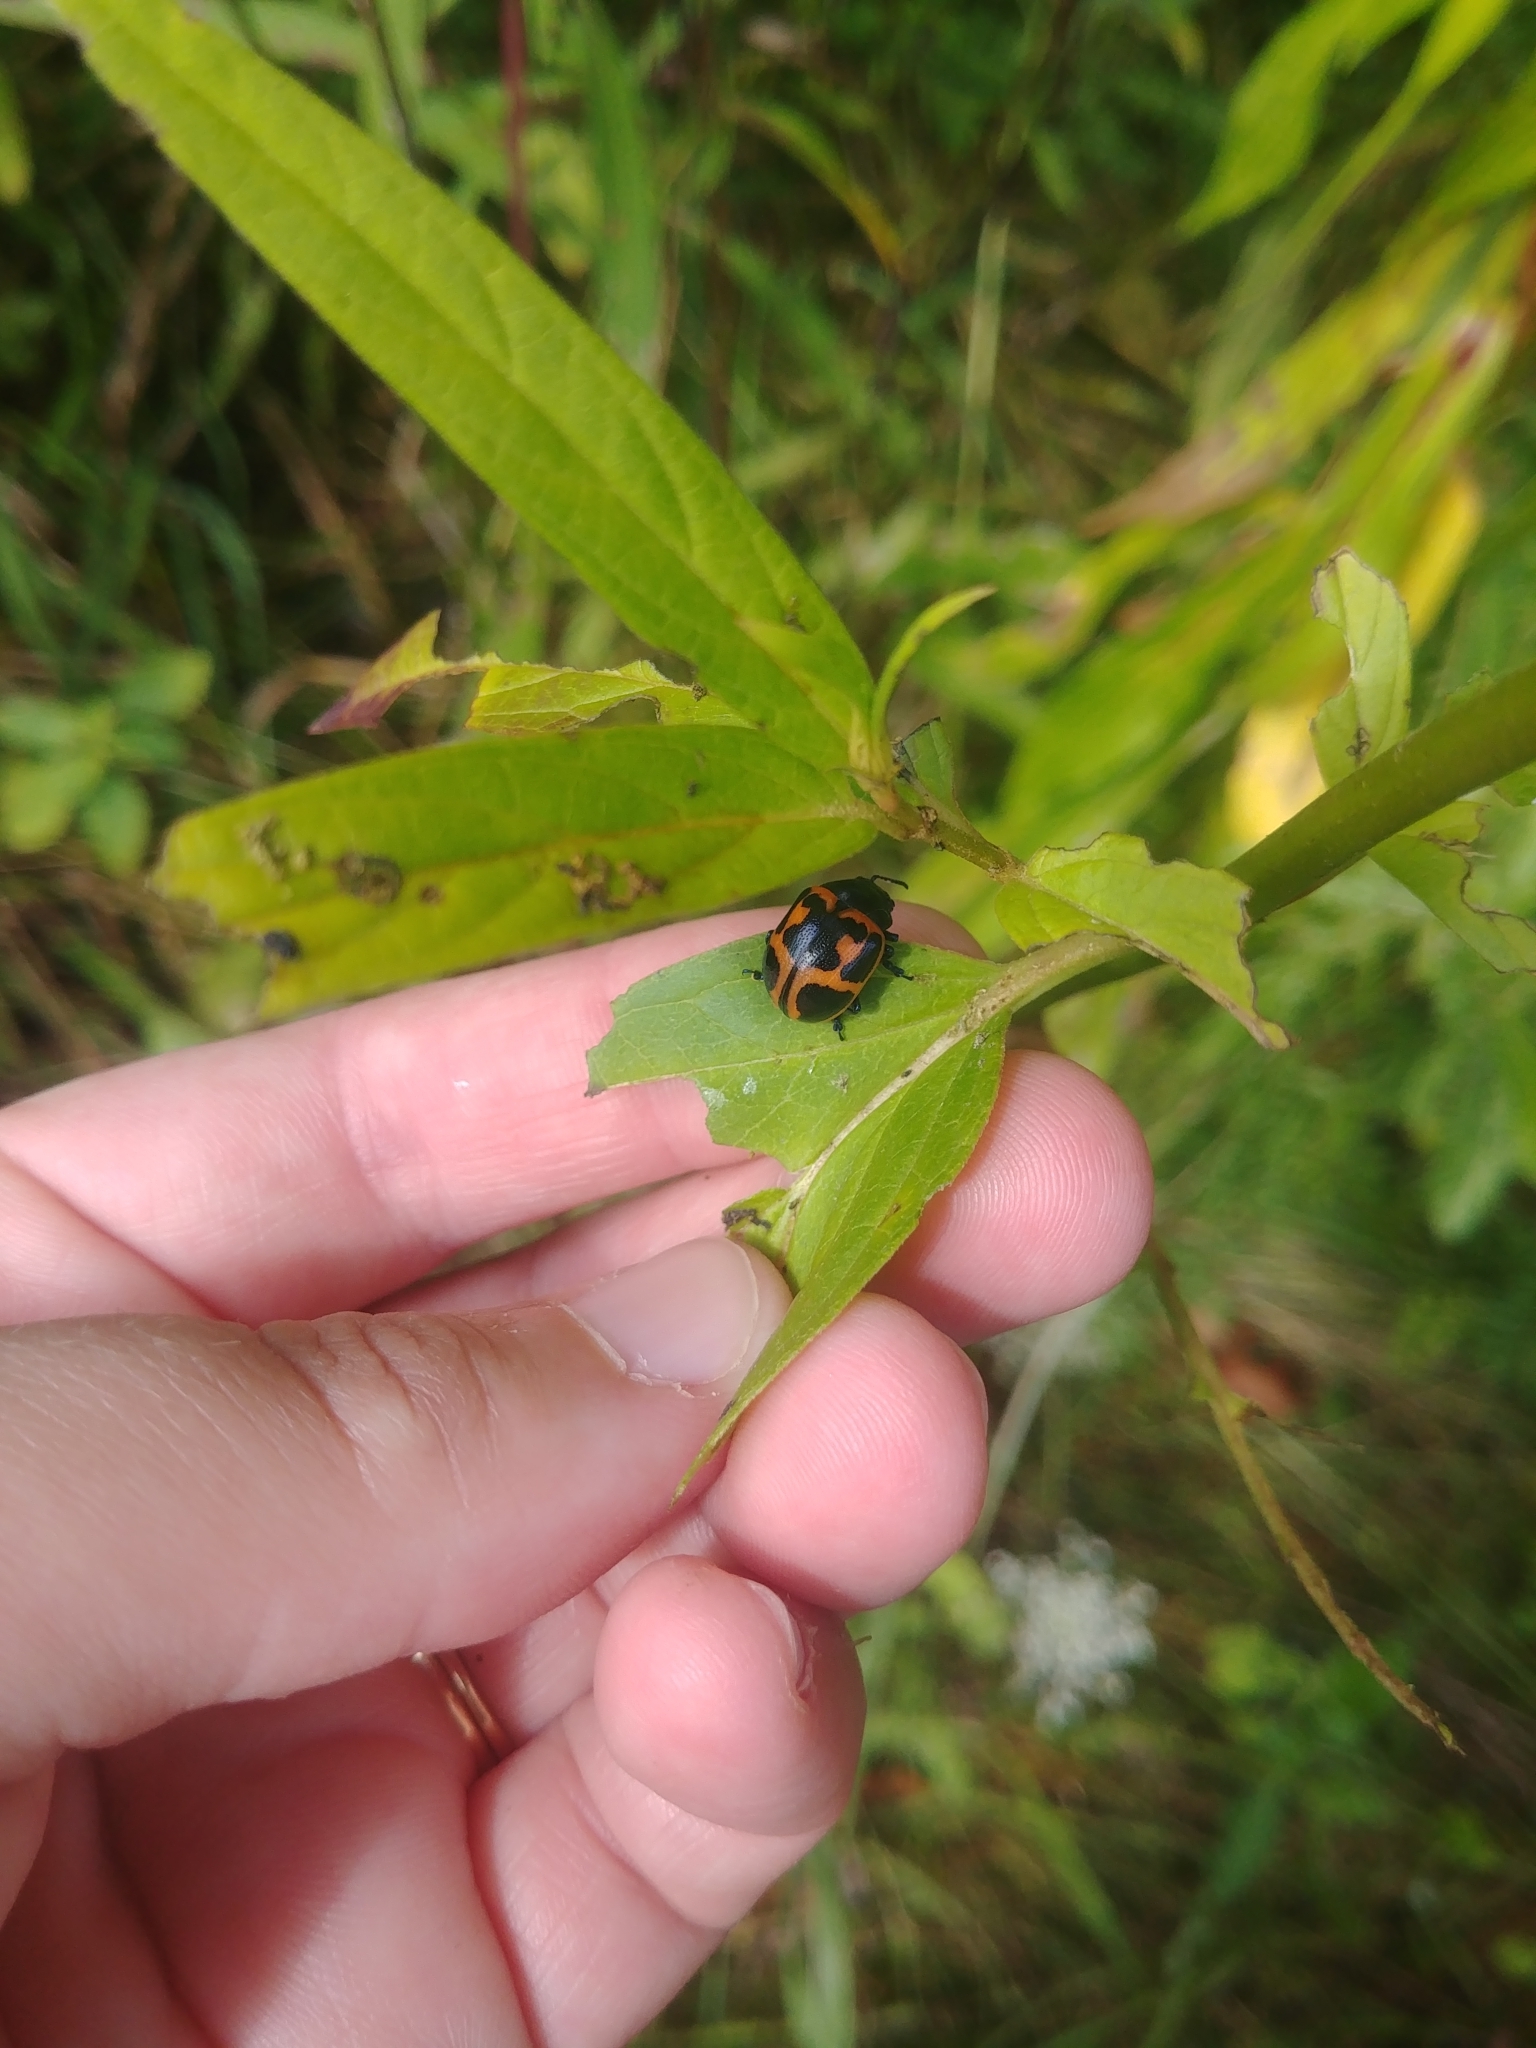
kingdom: Animalia
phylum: Arthropoda
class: Insecta
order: Coleoptera
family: Chrysomelidae
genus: Labidomera
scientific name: Labidomera clivicollis
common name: Swamp milkweed leaf beetle
